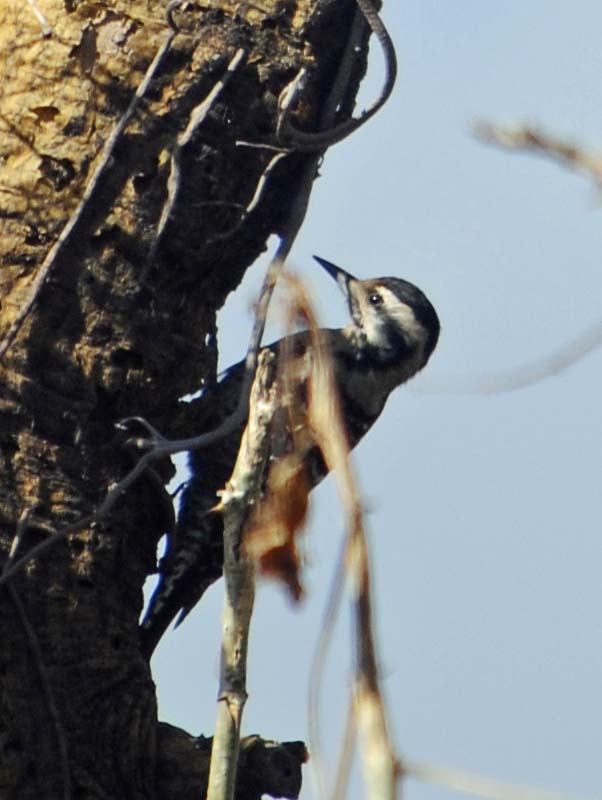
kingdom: Animalia
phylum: Chordata
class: Aves
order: Piciformes
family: Picidae
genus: Dryobates
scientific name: Dryobates scalaris
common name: Ladder-backed woodpecker
